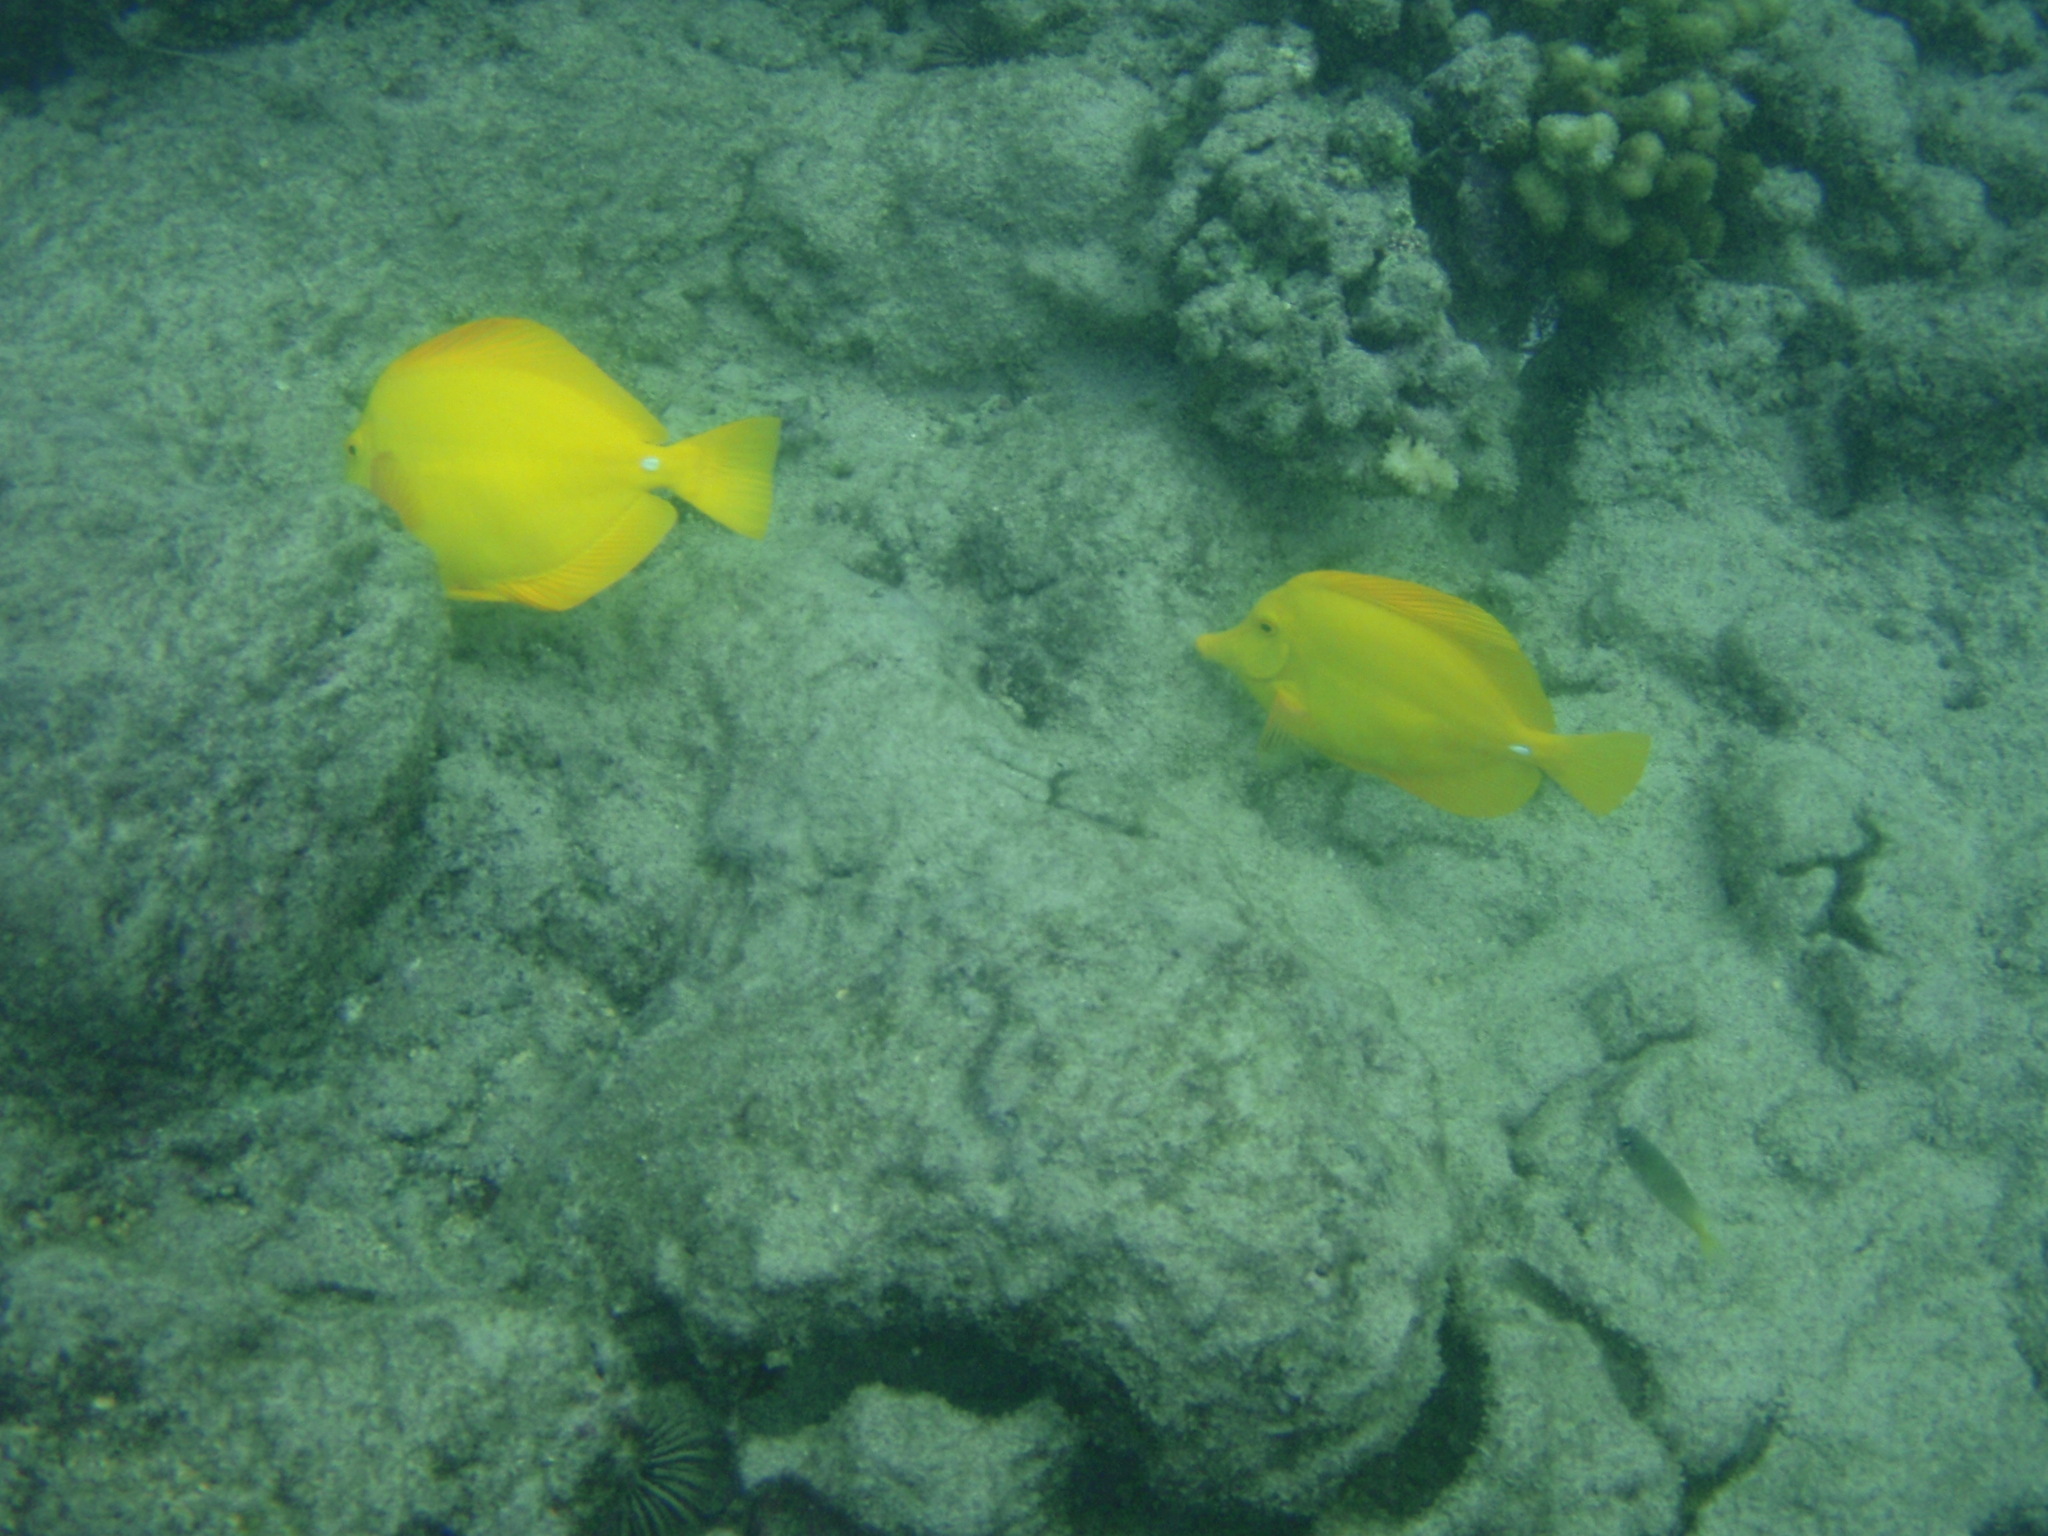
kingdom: Animalia
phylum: Chordata
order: Perciformes
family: Acanthuridae
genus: Zebrasoma
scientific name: Zebrasoma flavescens
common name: Yellow tang
